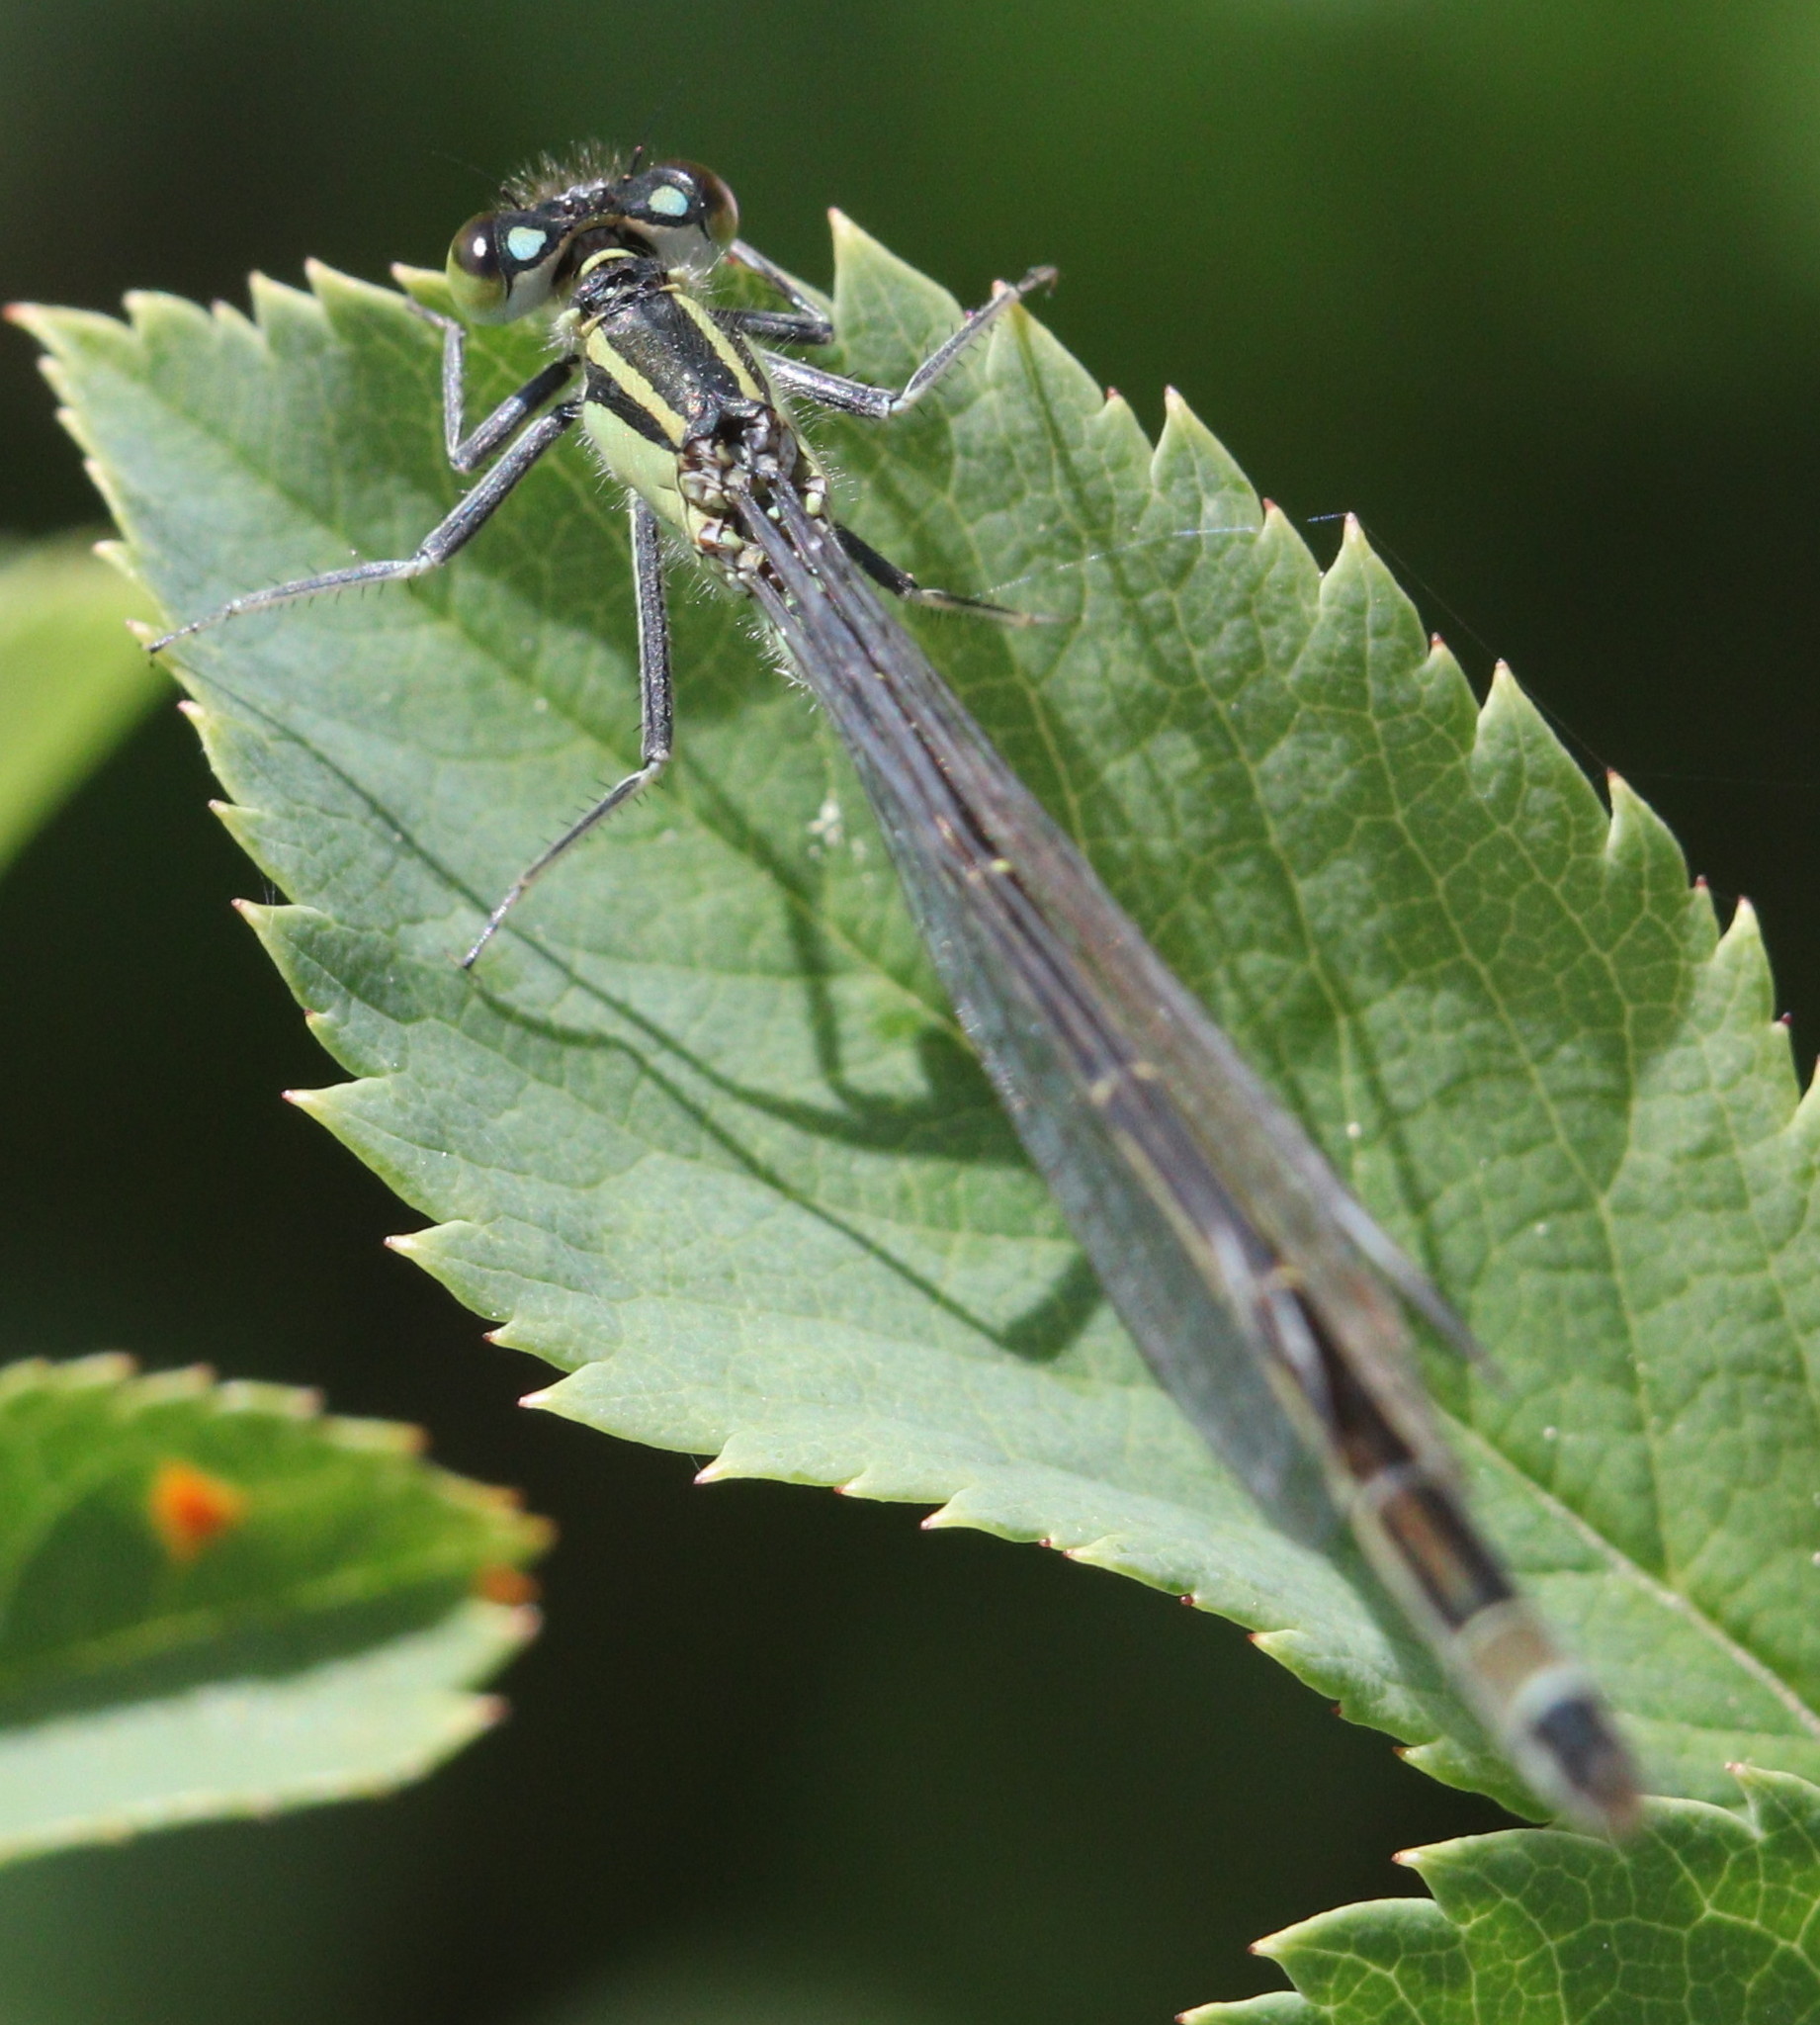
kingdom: Animalia
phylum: Arthropoda
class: Insecta
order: Odonata
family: Coenagrionidae
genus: Ischnura
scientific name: Ischnura elegans
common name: Blue-tailed damselfly
